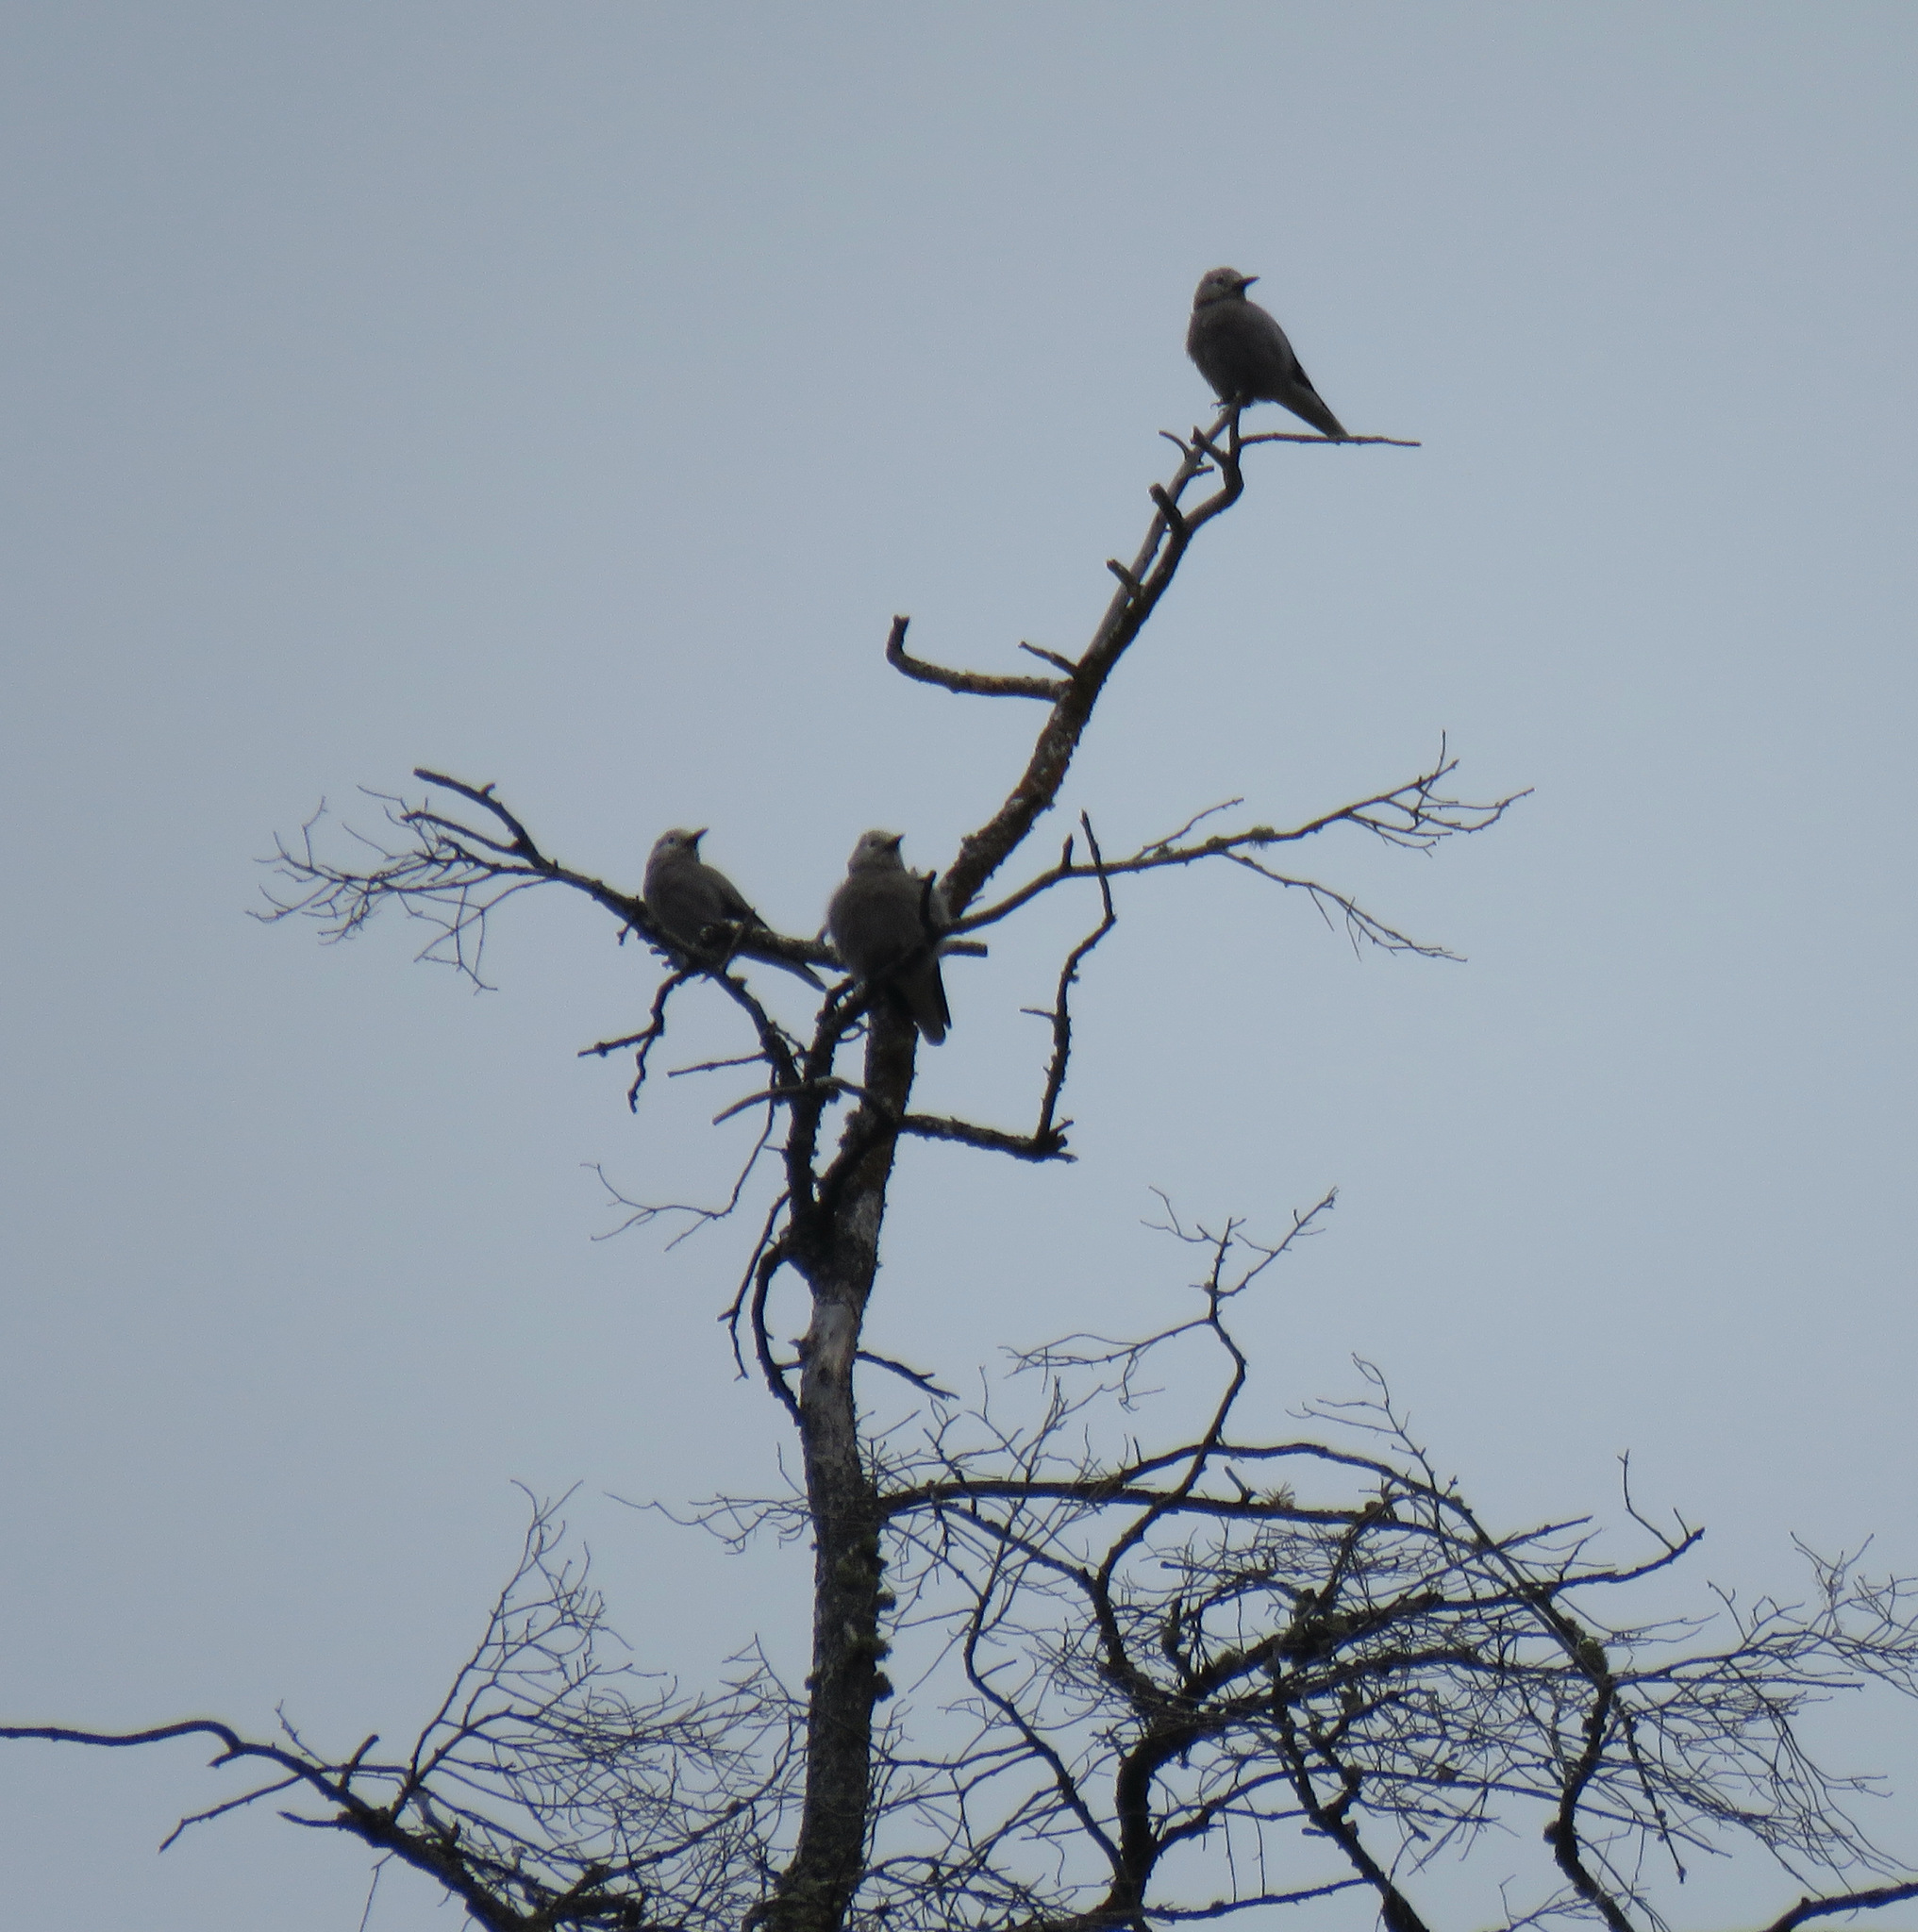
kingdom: Animalia
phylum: Chordata
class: Aves
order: Passeriformes
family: Corvidae
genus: Nucifraga
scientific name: Nucifraga columbiana
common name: Clark's nutcracker
